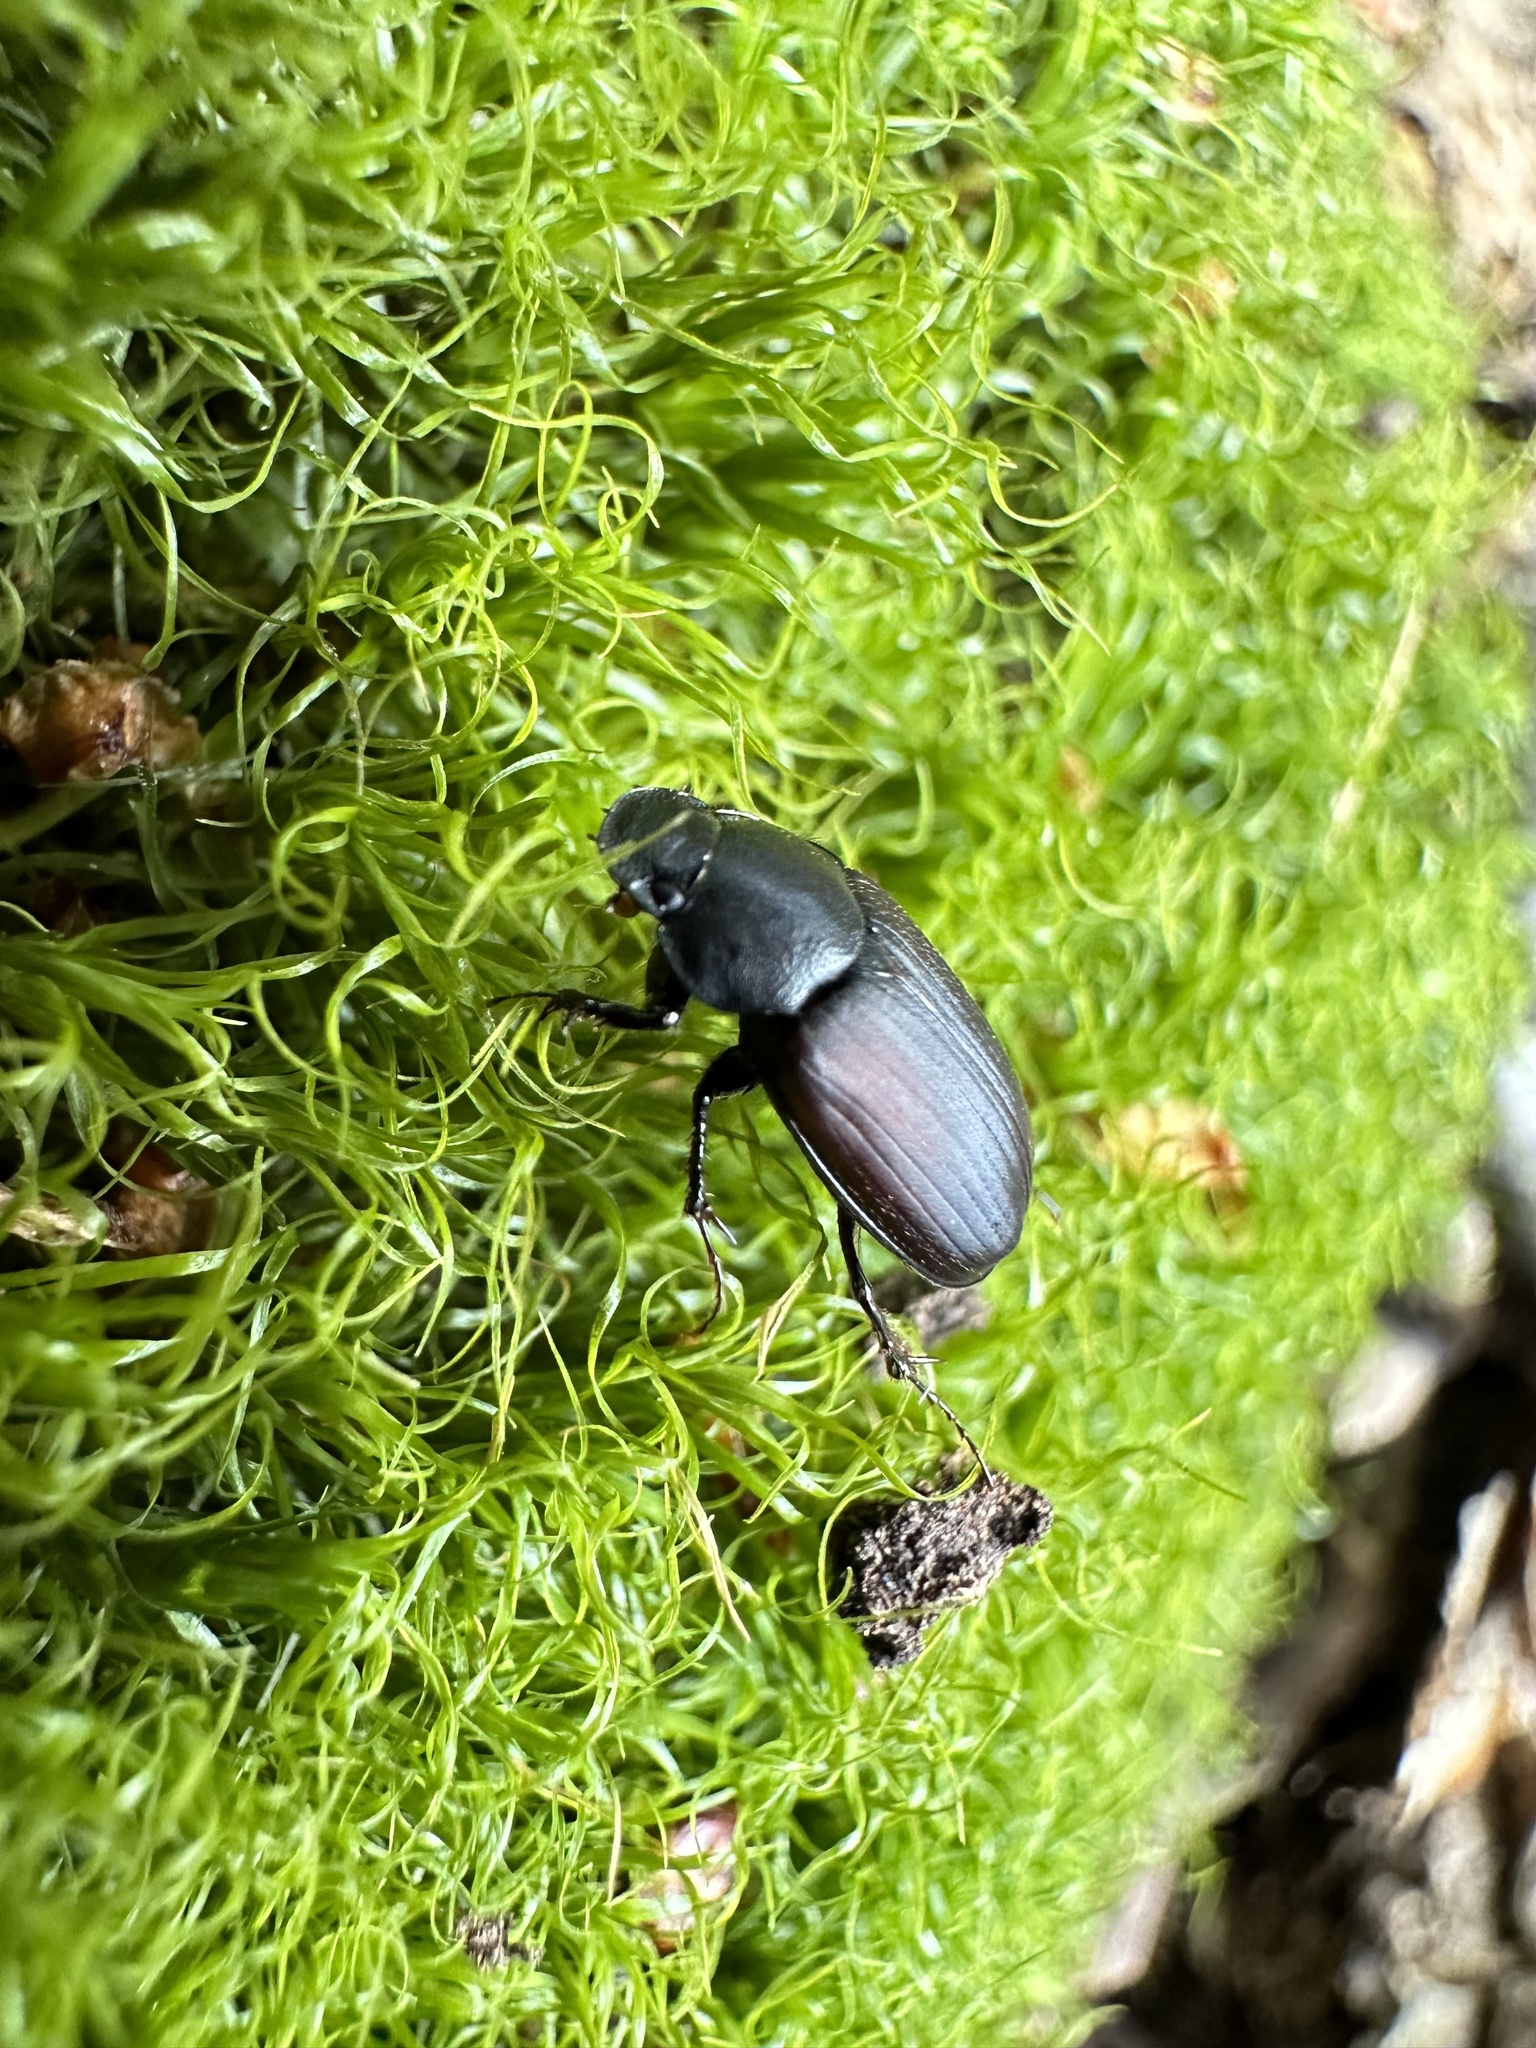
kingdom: Animalia
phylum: Arthropoda
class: Insecta
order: Coleoptera
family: Scarabaeidae
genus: Pseudopodotenus
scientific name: Pseudopodotenus fulviventris
